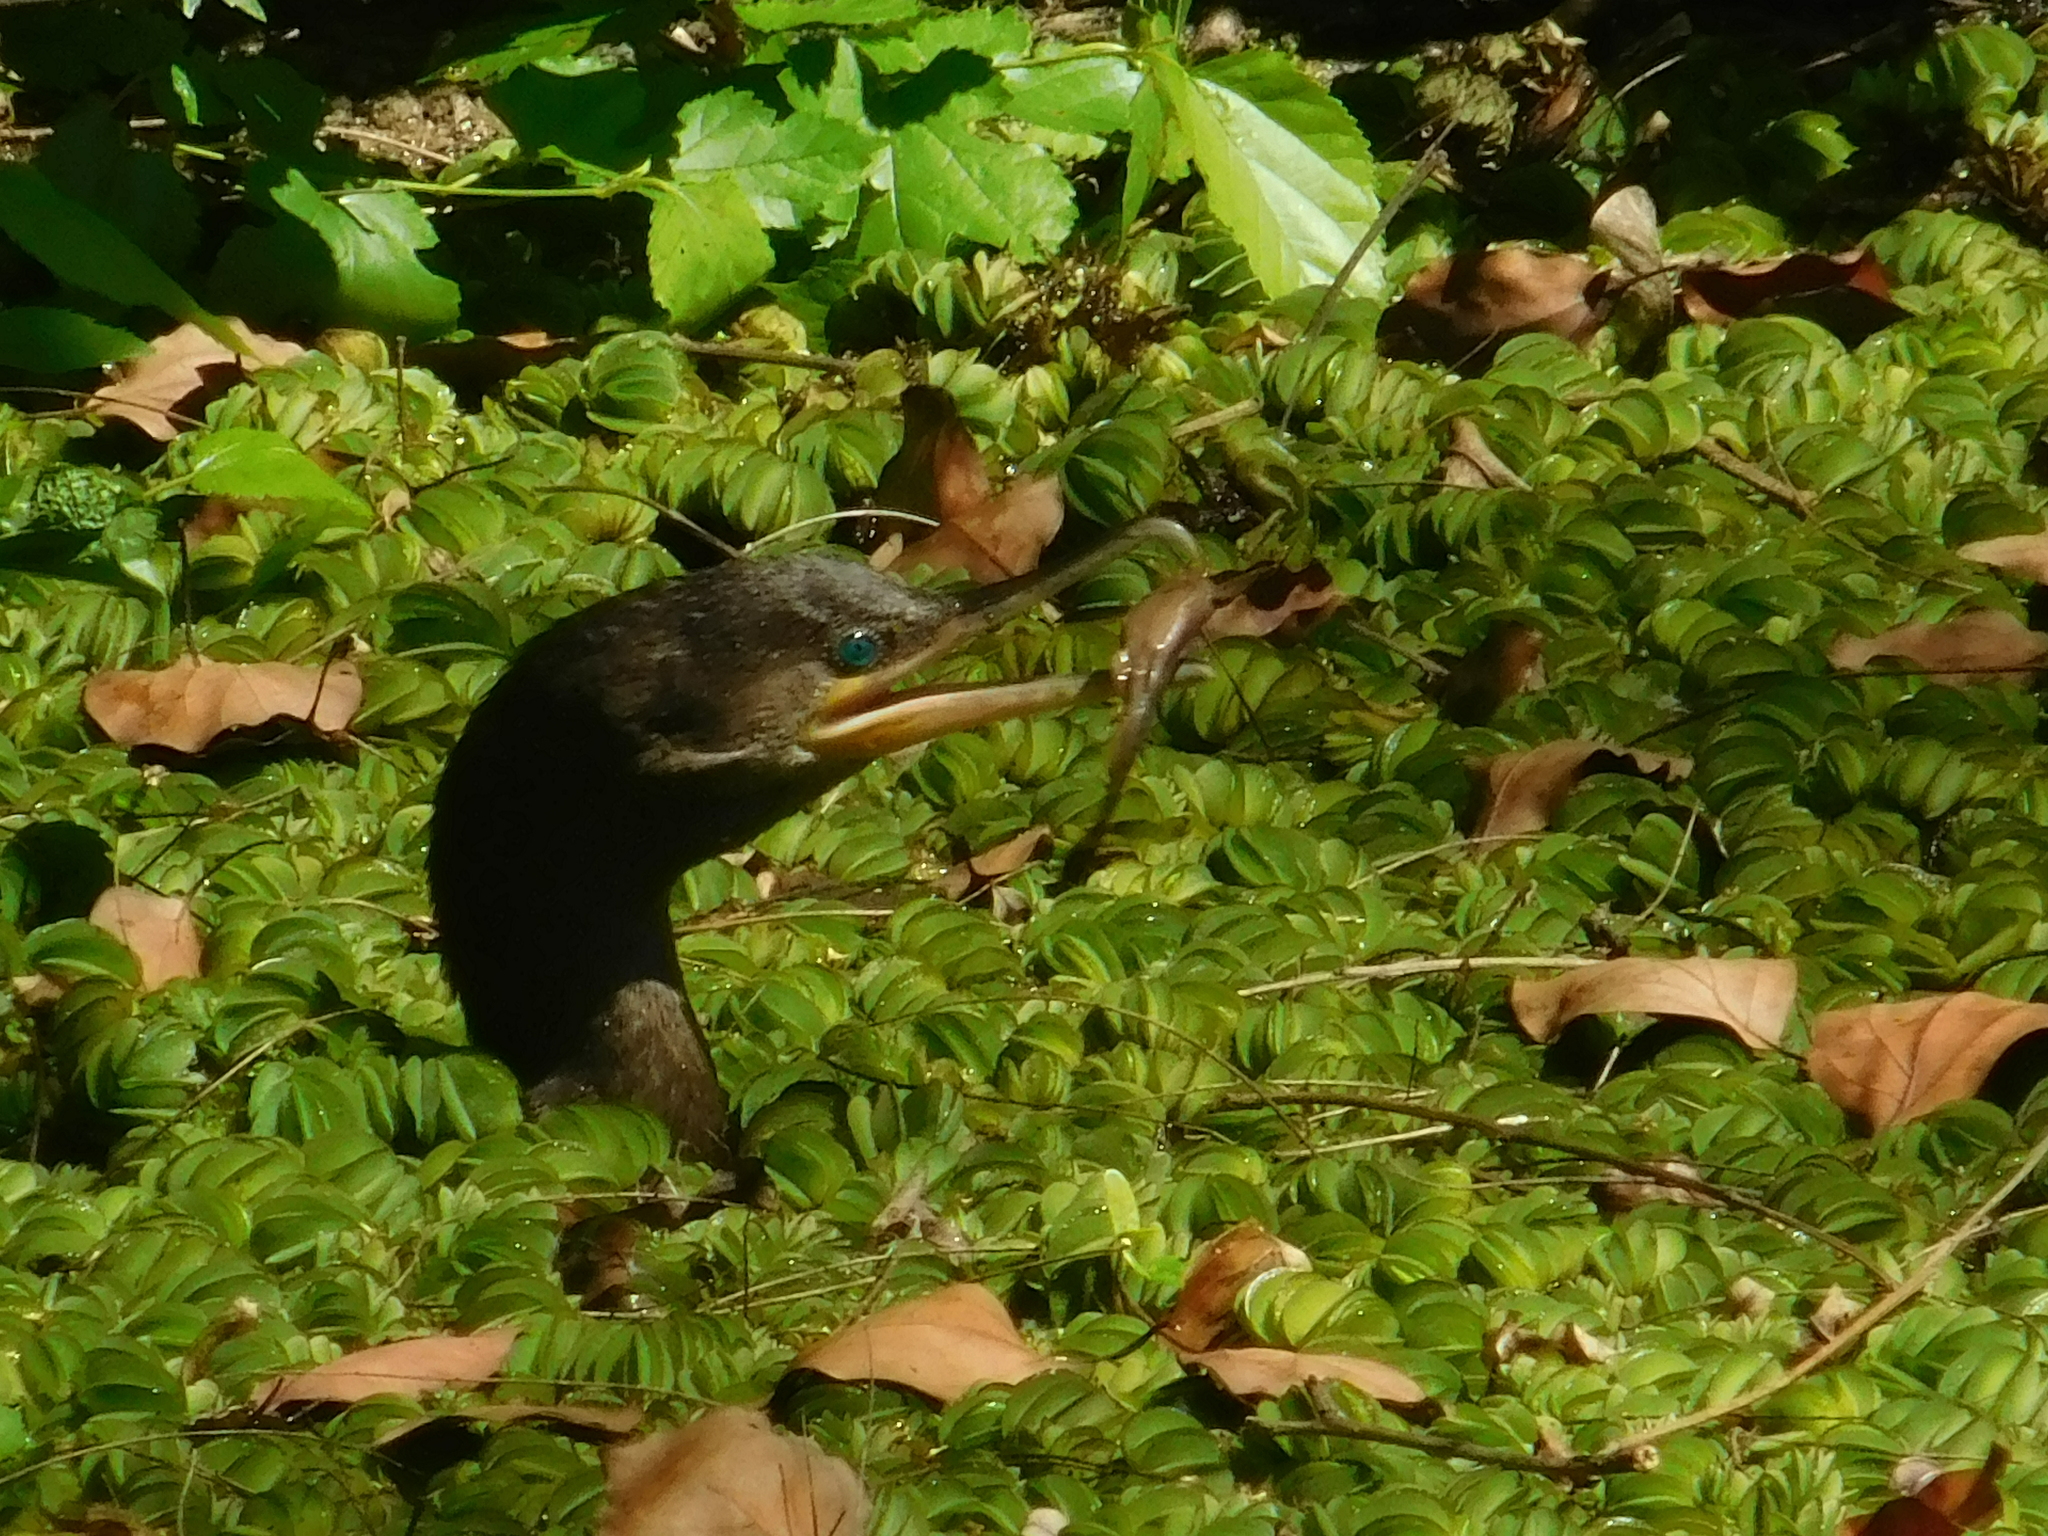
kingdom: Animalia
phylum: Chordata
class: Aves
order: Suliformes
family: Phalacrocoracidae
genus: Phalacrocorax
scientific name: Phalacrocorax brasilianus
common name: Neotropic cormorant
